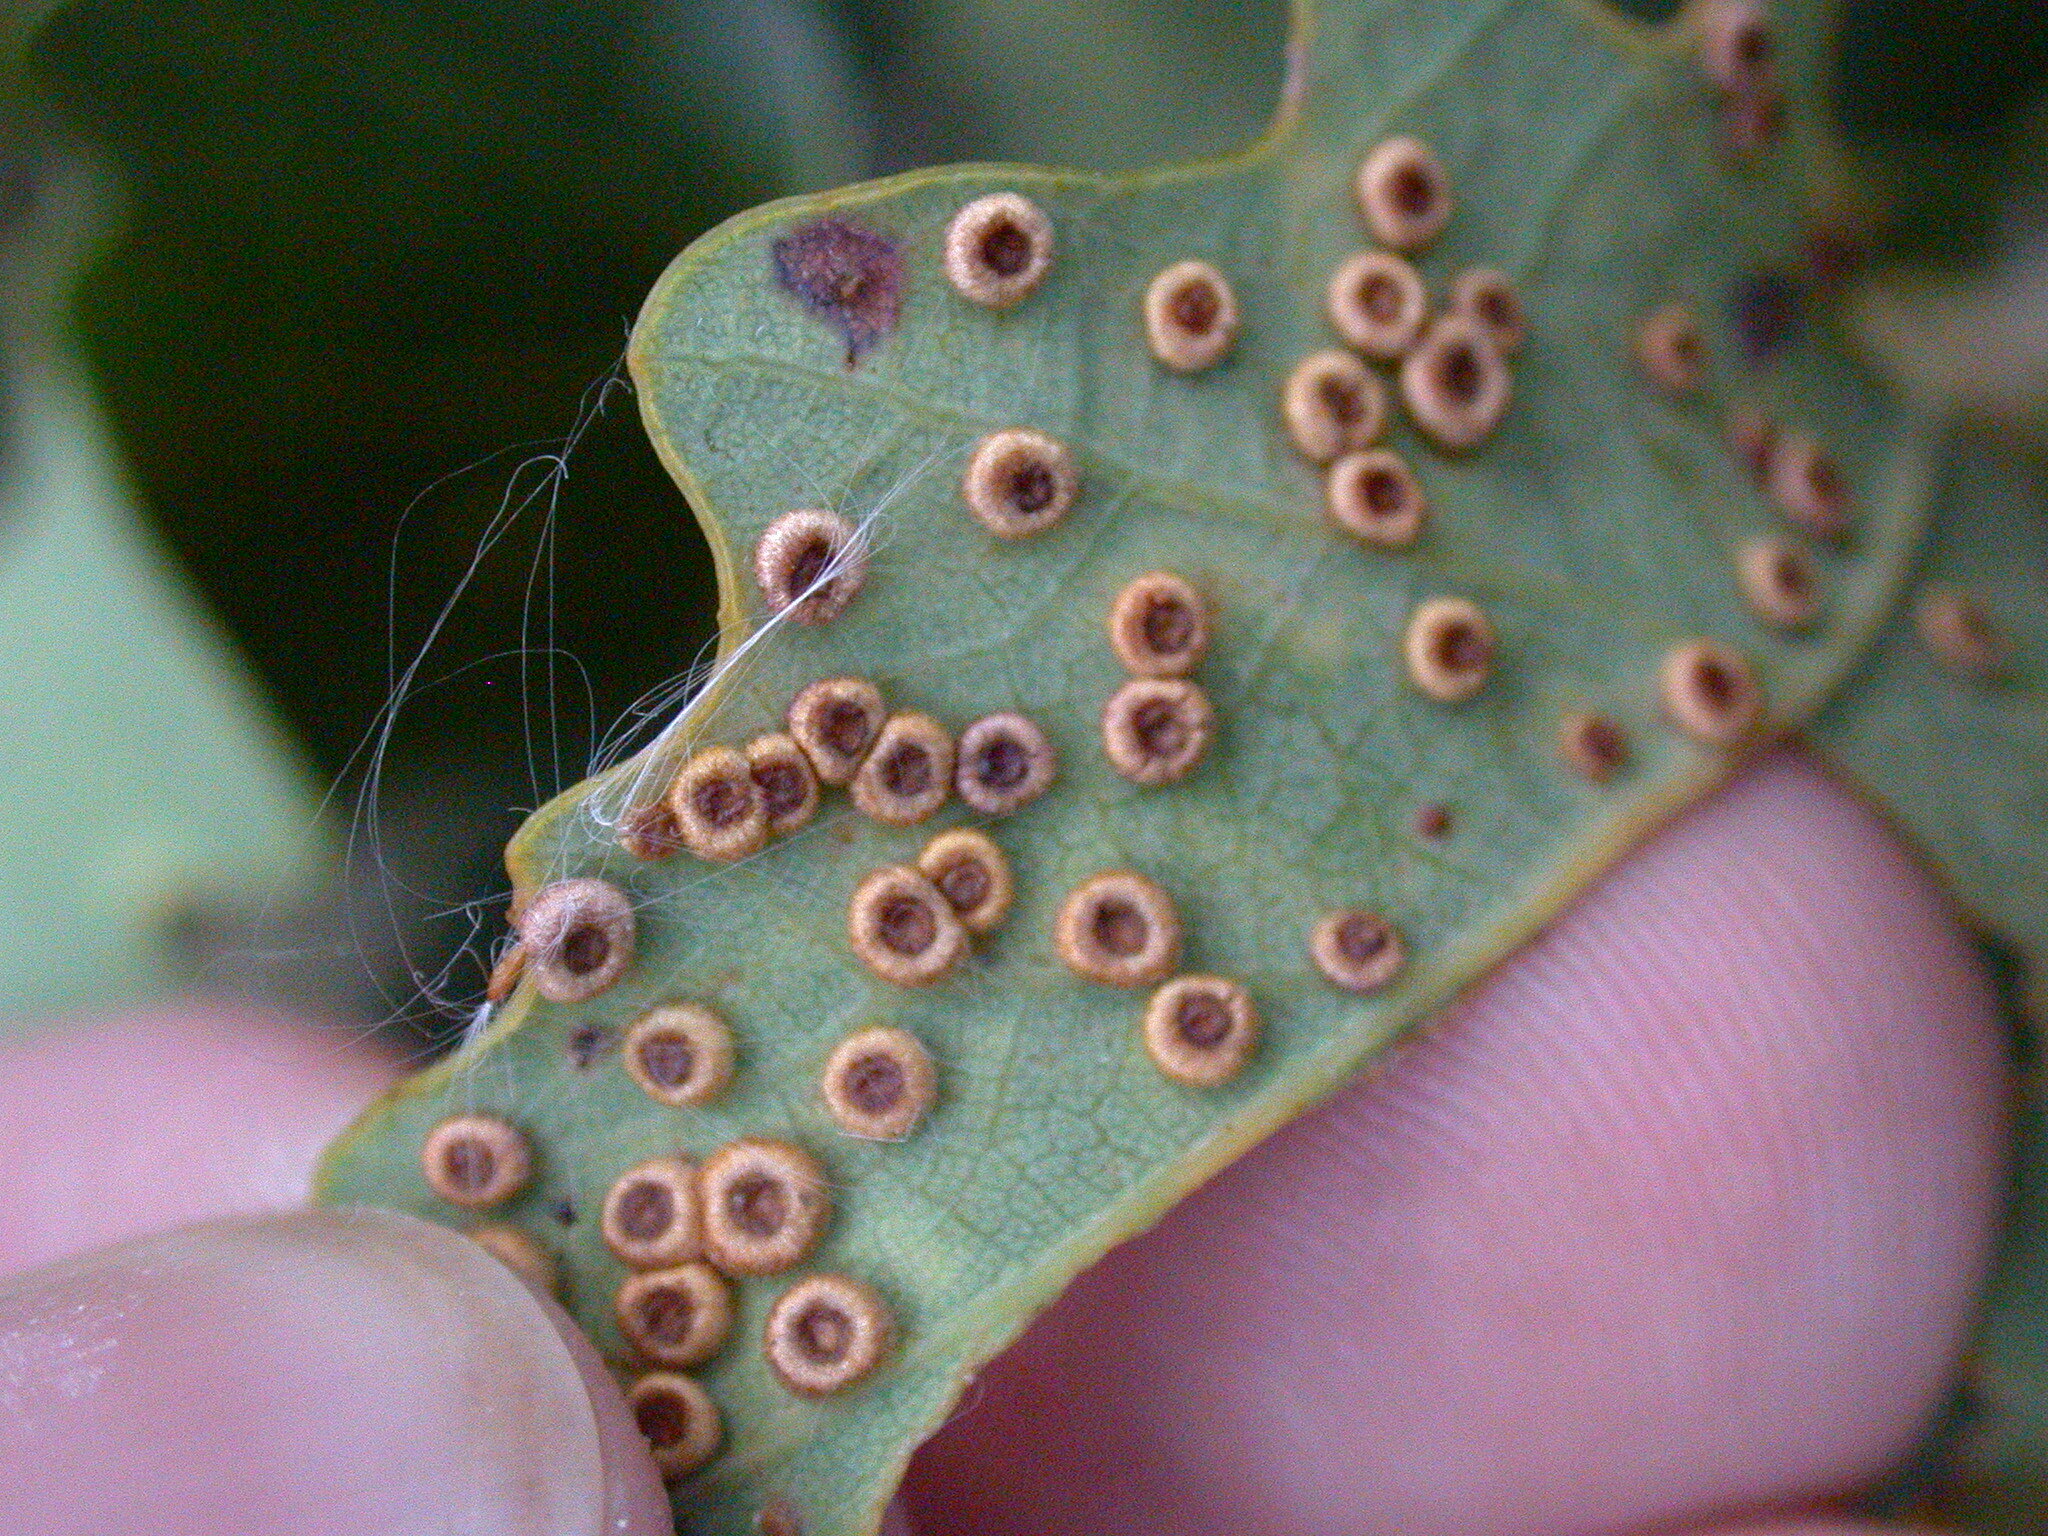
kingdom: Animalia
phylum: Arthropoda
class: Insecta
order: Hymenoptera
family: Cynipidae
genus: Neuroterus
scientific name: Neuroterus numismalis
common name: Silk-button spangle gall
